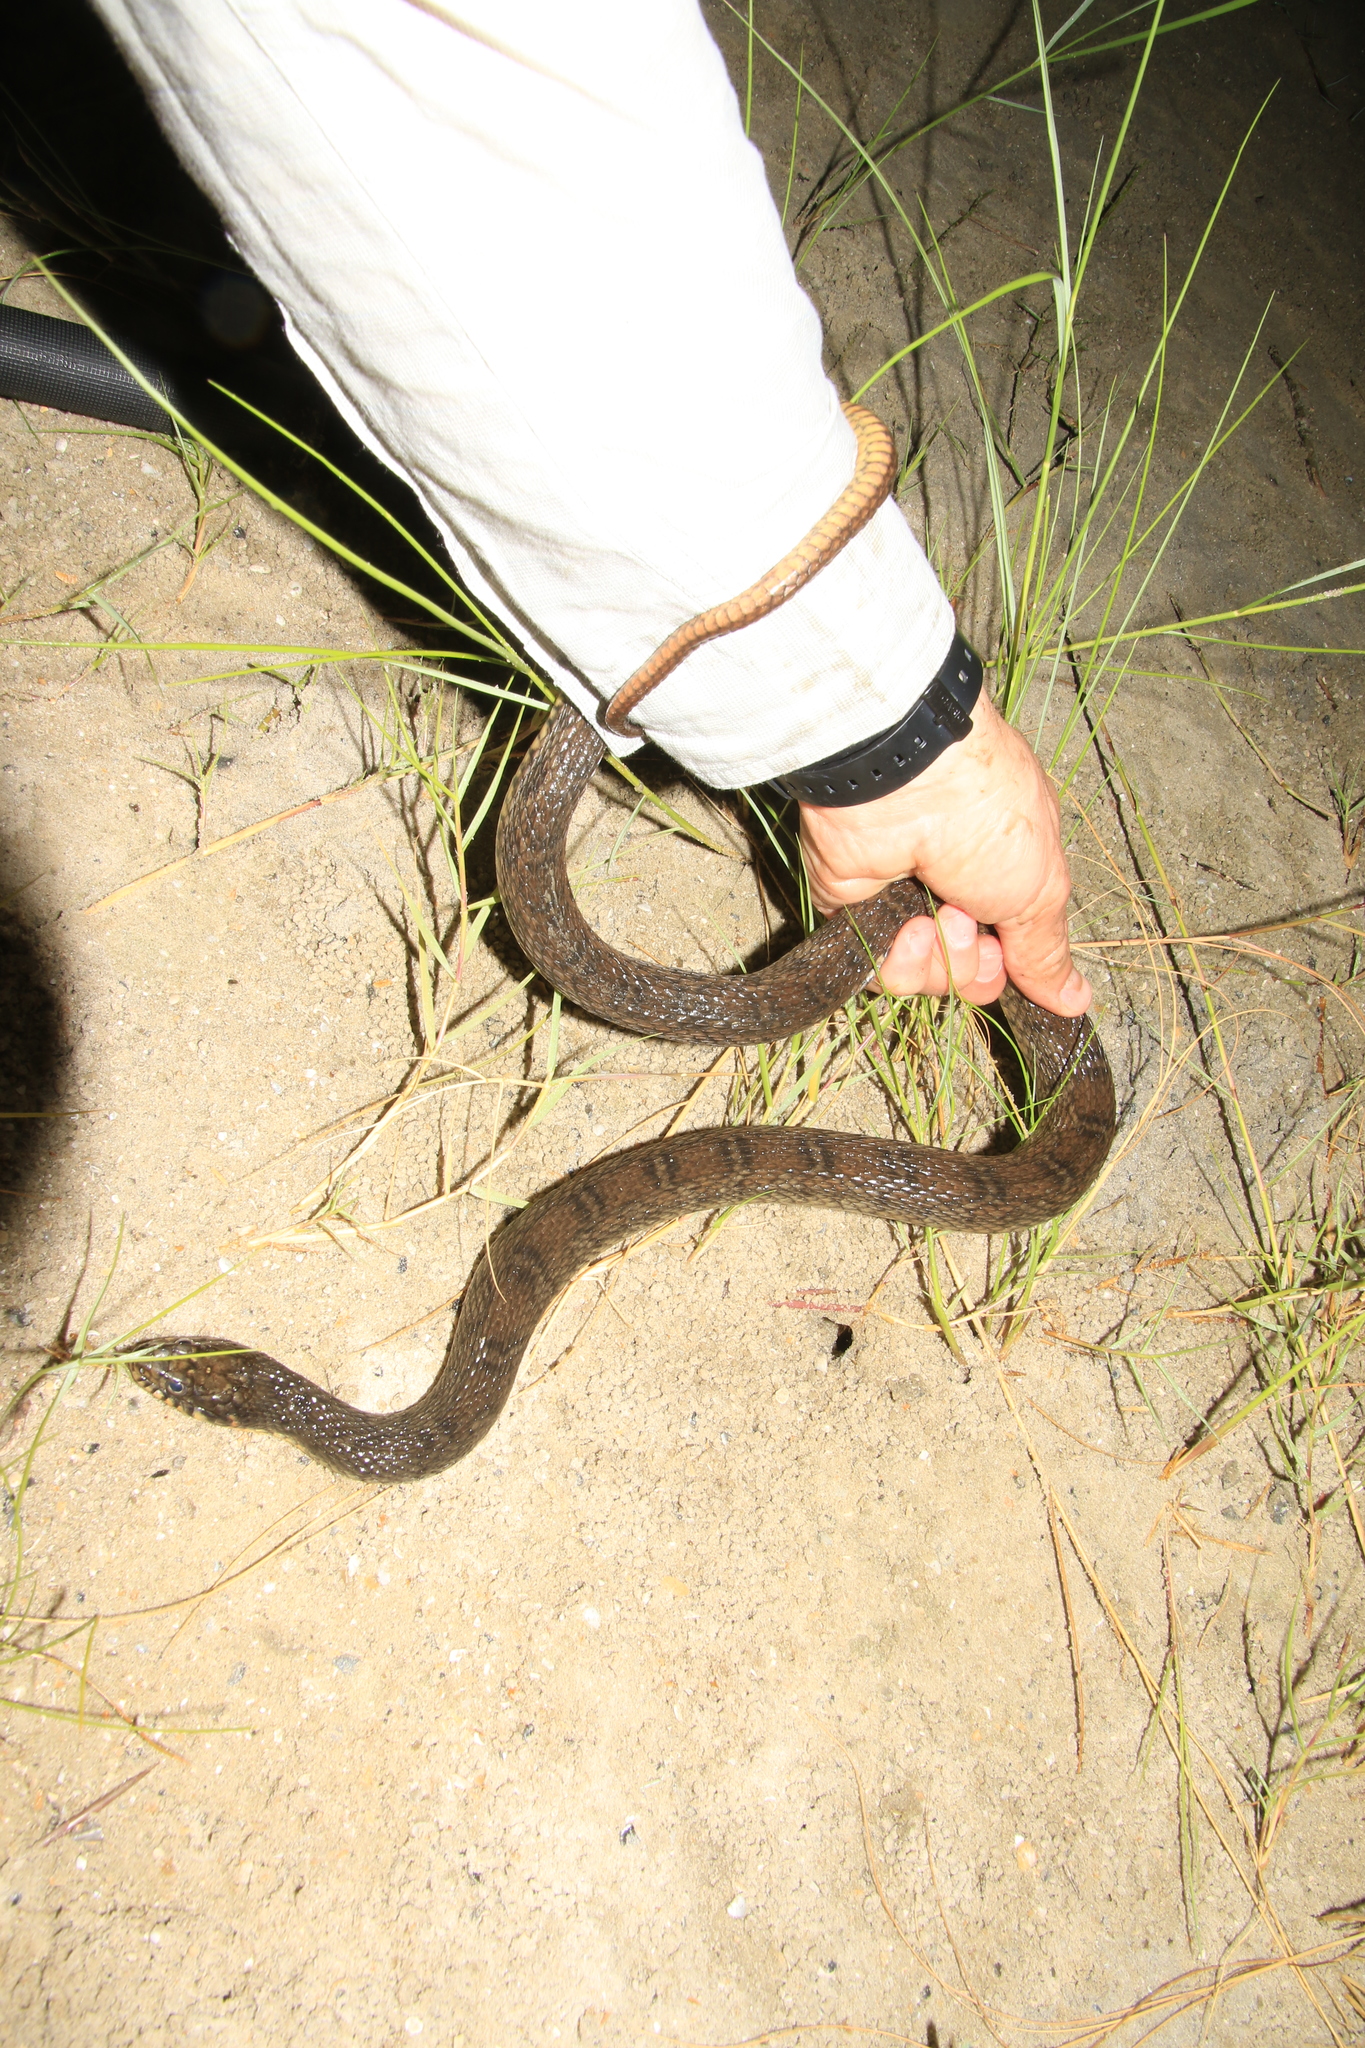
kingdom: Animalia
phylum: Chordata
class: Squamata
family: Colubridae
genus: Nerodia
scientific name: Nerodia erythrogaster
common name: Plainbelly water snake
